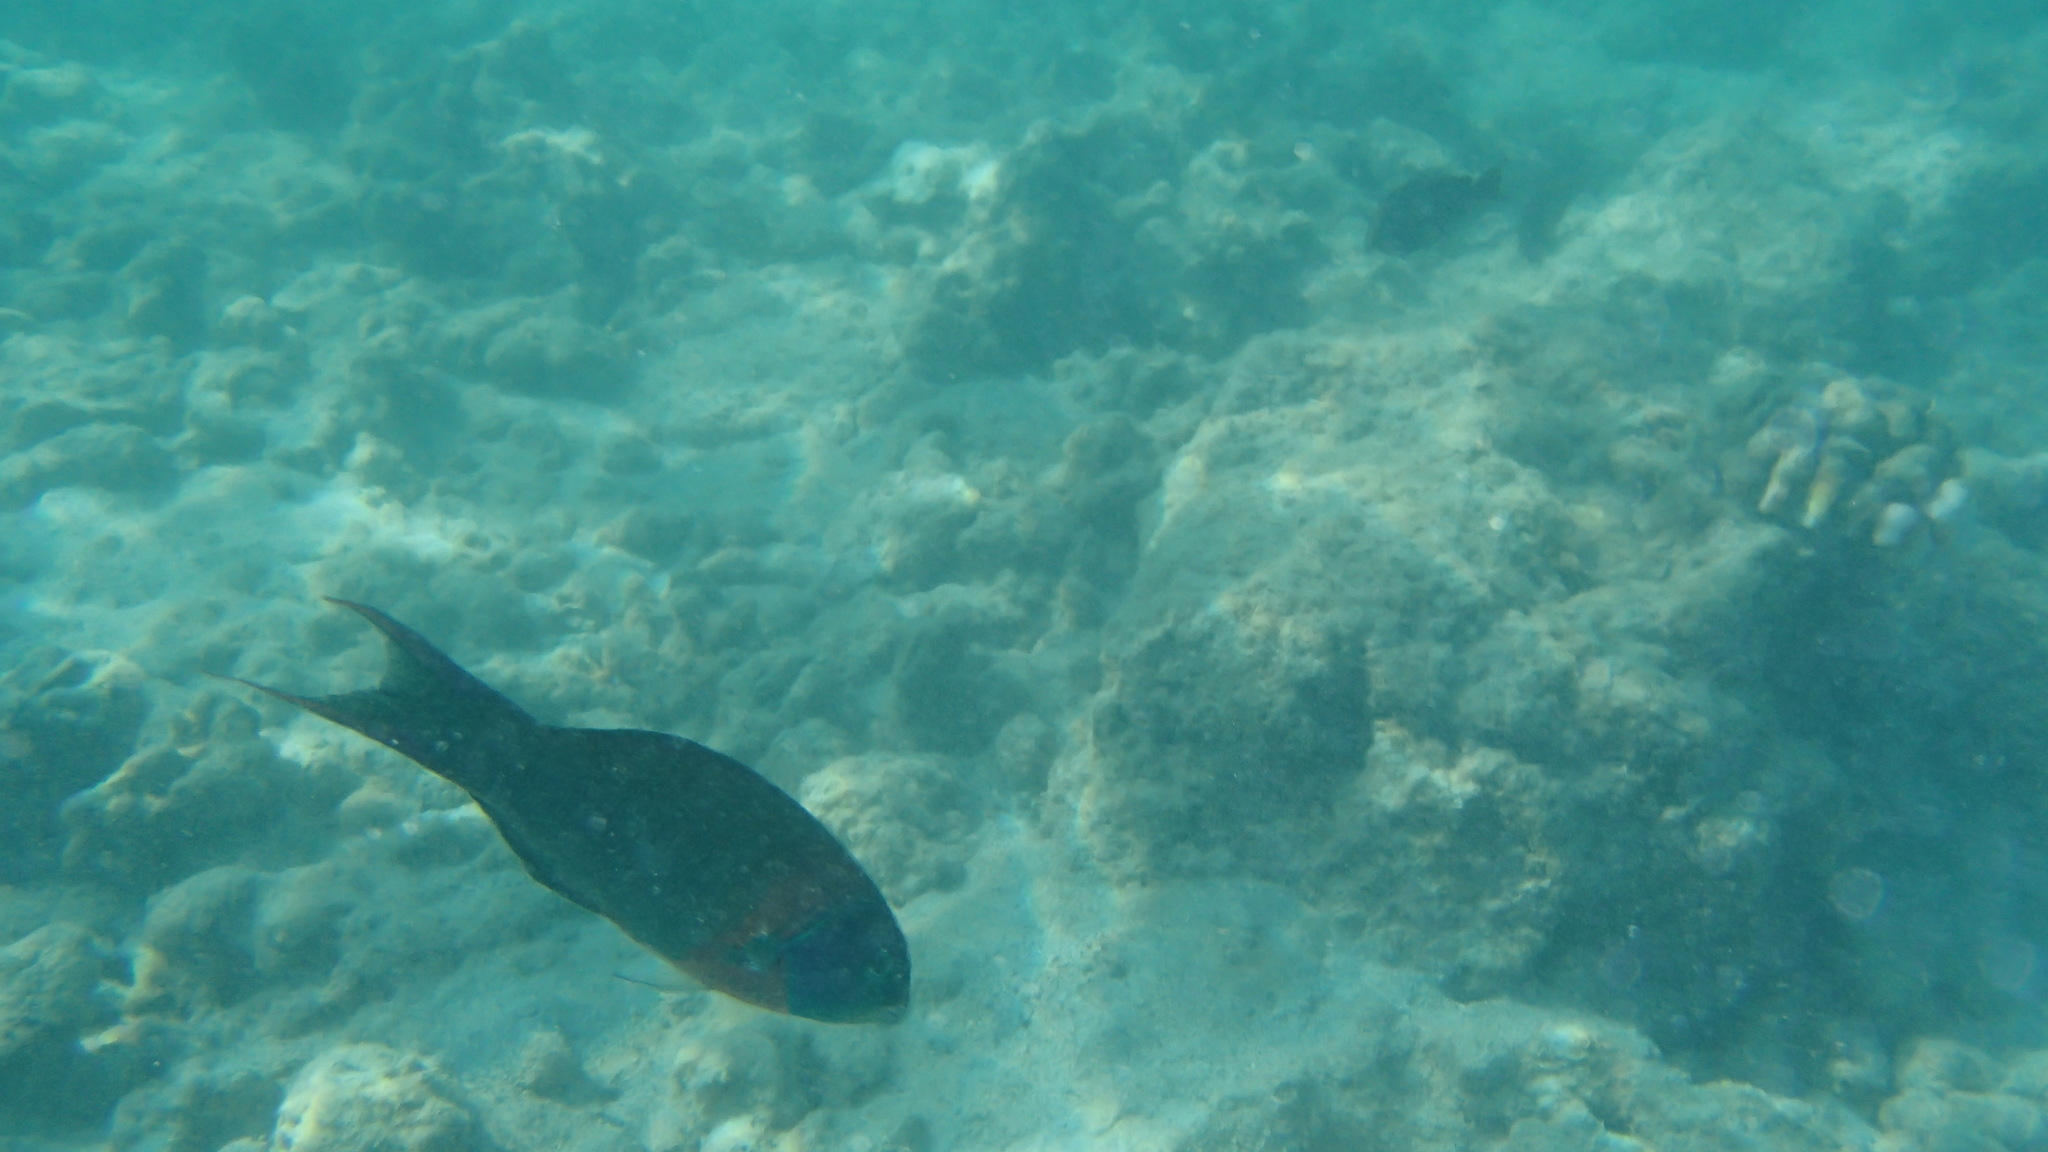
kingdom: Animalia
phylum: Chordata
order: Perciformes
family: Labridae
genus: Thalassoma
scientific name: Thalassoma duperrey
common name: Saddle wrasse
